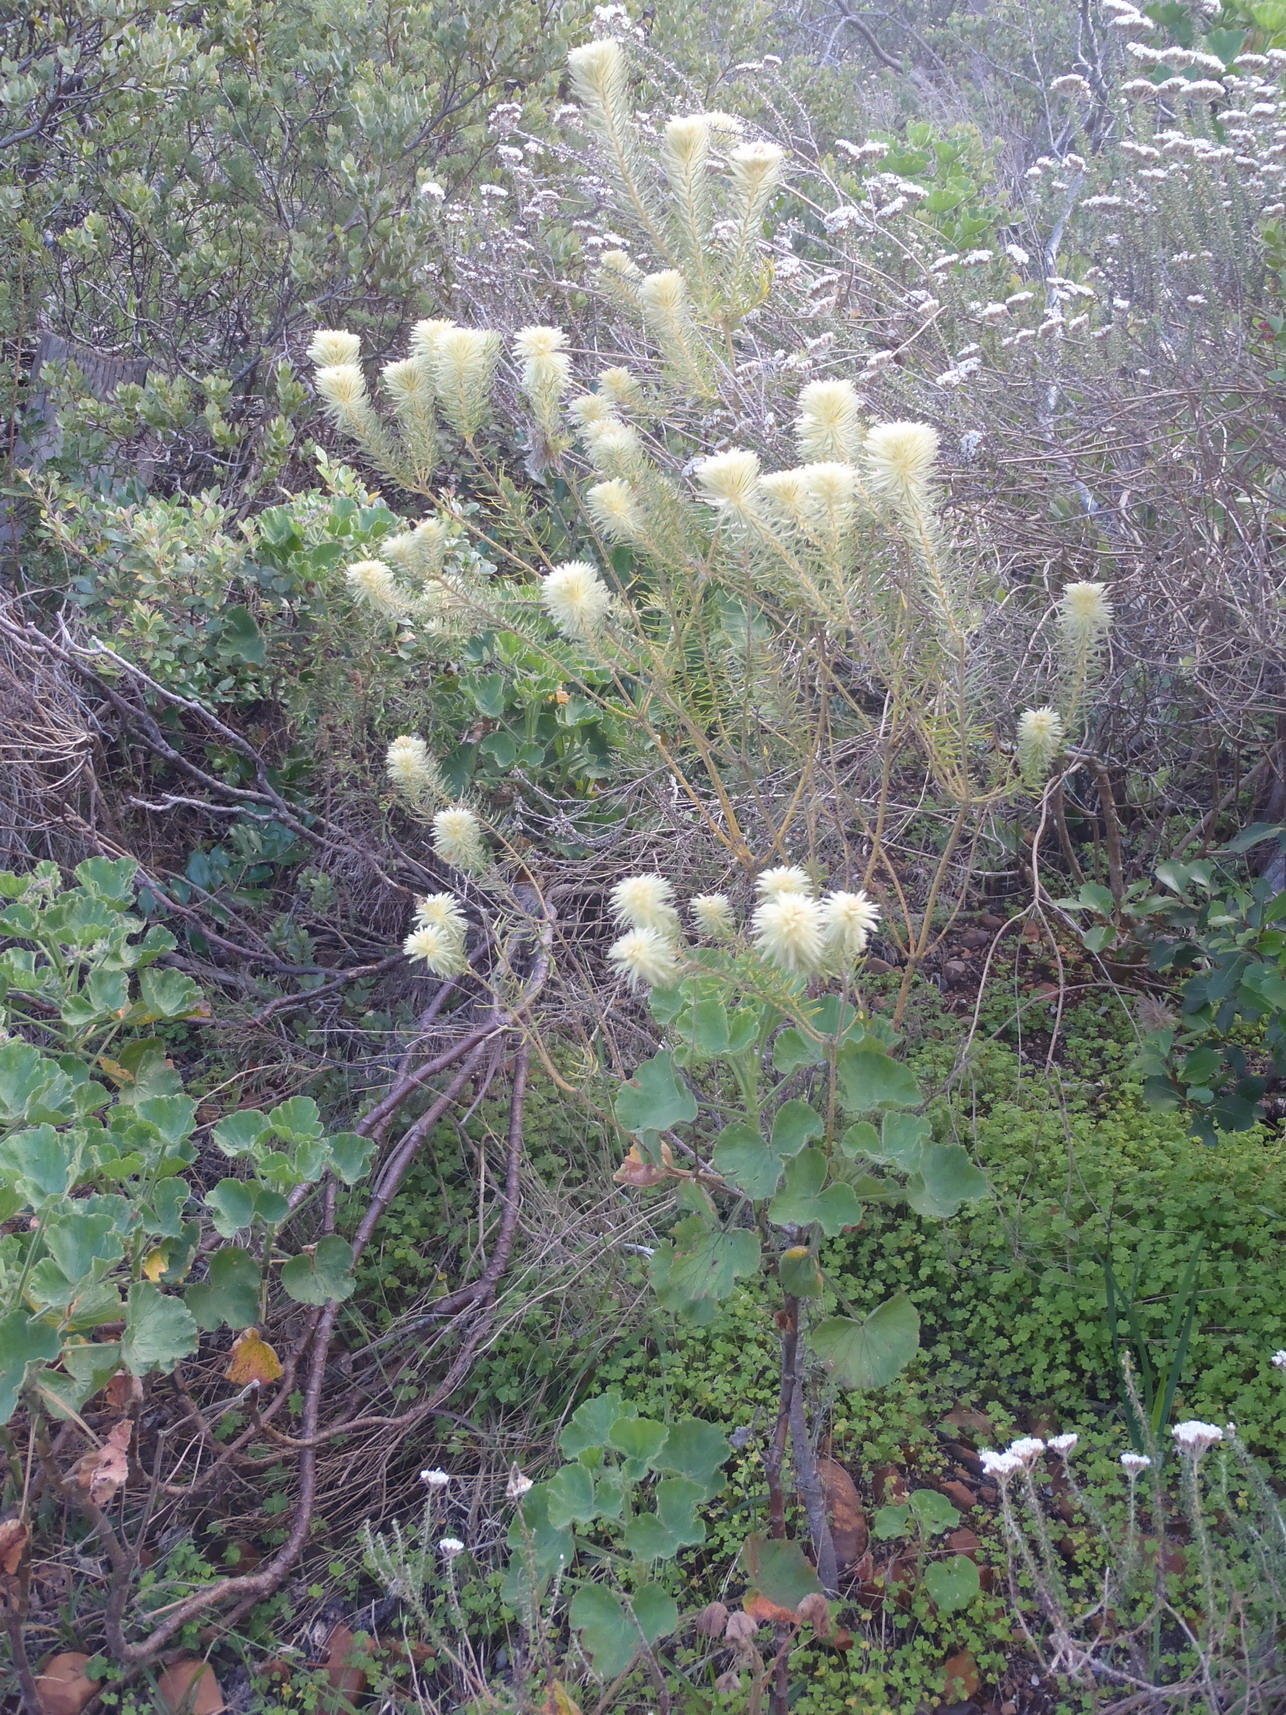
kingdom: Plantae
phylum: Tracheophyta
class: Magnoliopsida
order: Rosales
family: Rhamnaceae
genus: Phylica
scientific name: Phylica pubescens
